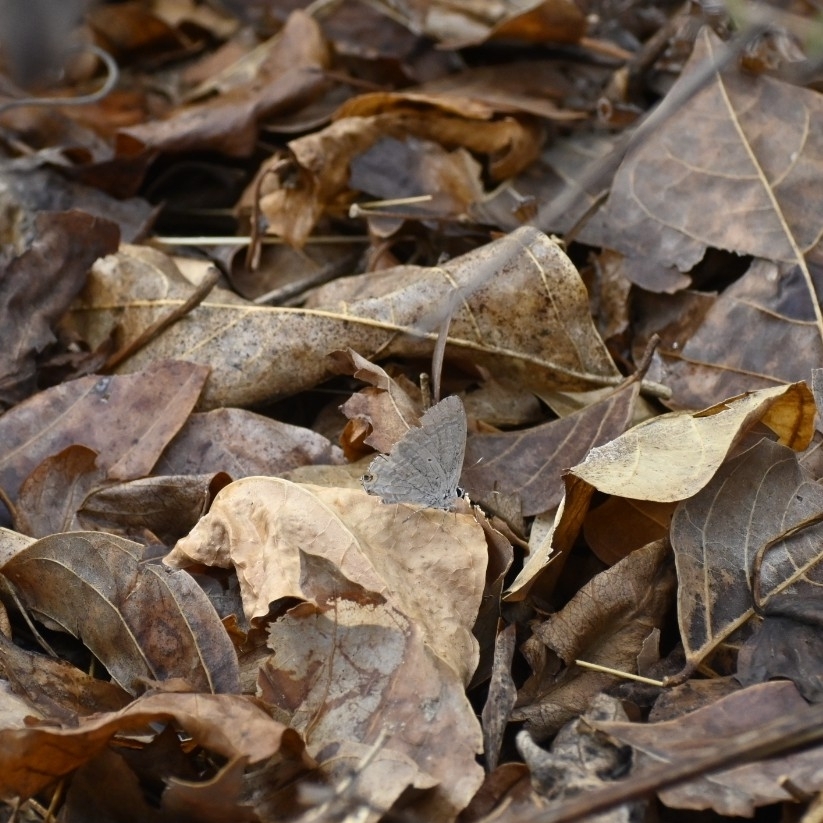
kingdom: Animalia
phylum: Arthropoda
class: Insecta
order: Lepidoptera
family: Lycaenidae
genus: Catochrysops
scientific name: Catochrysops strabo
